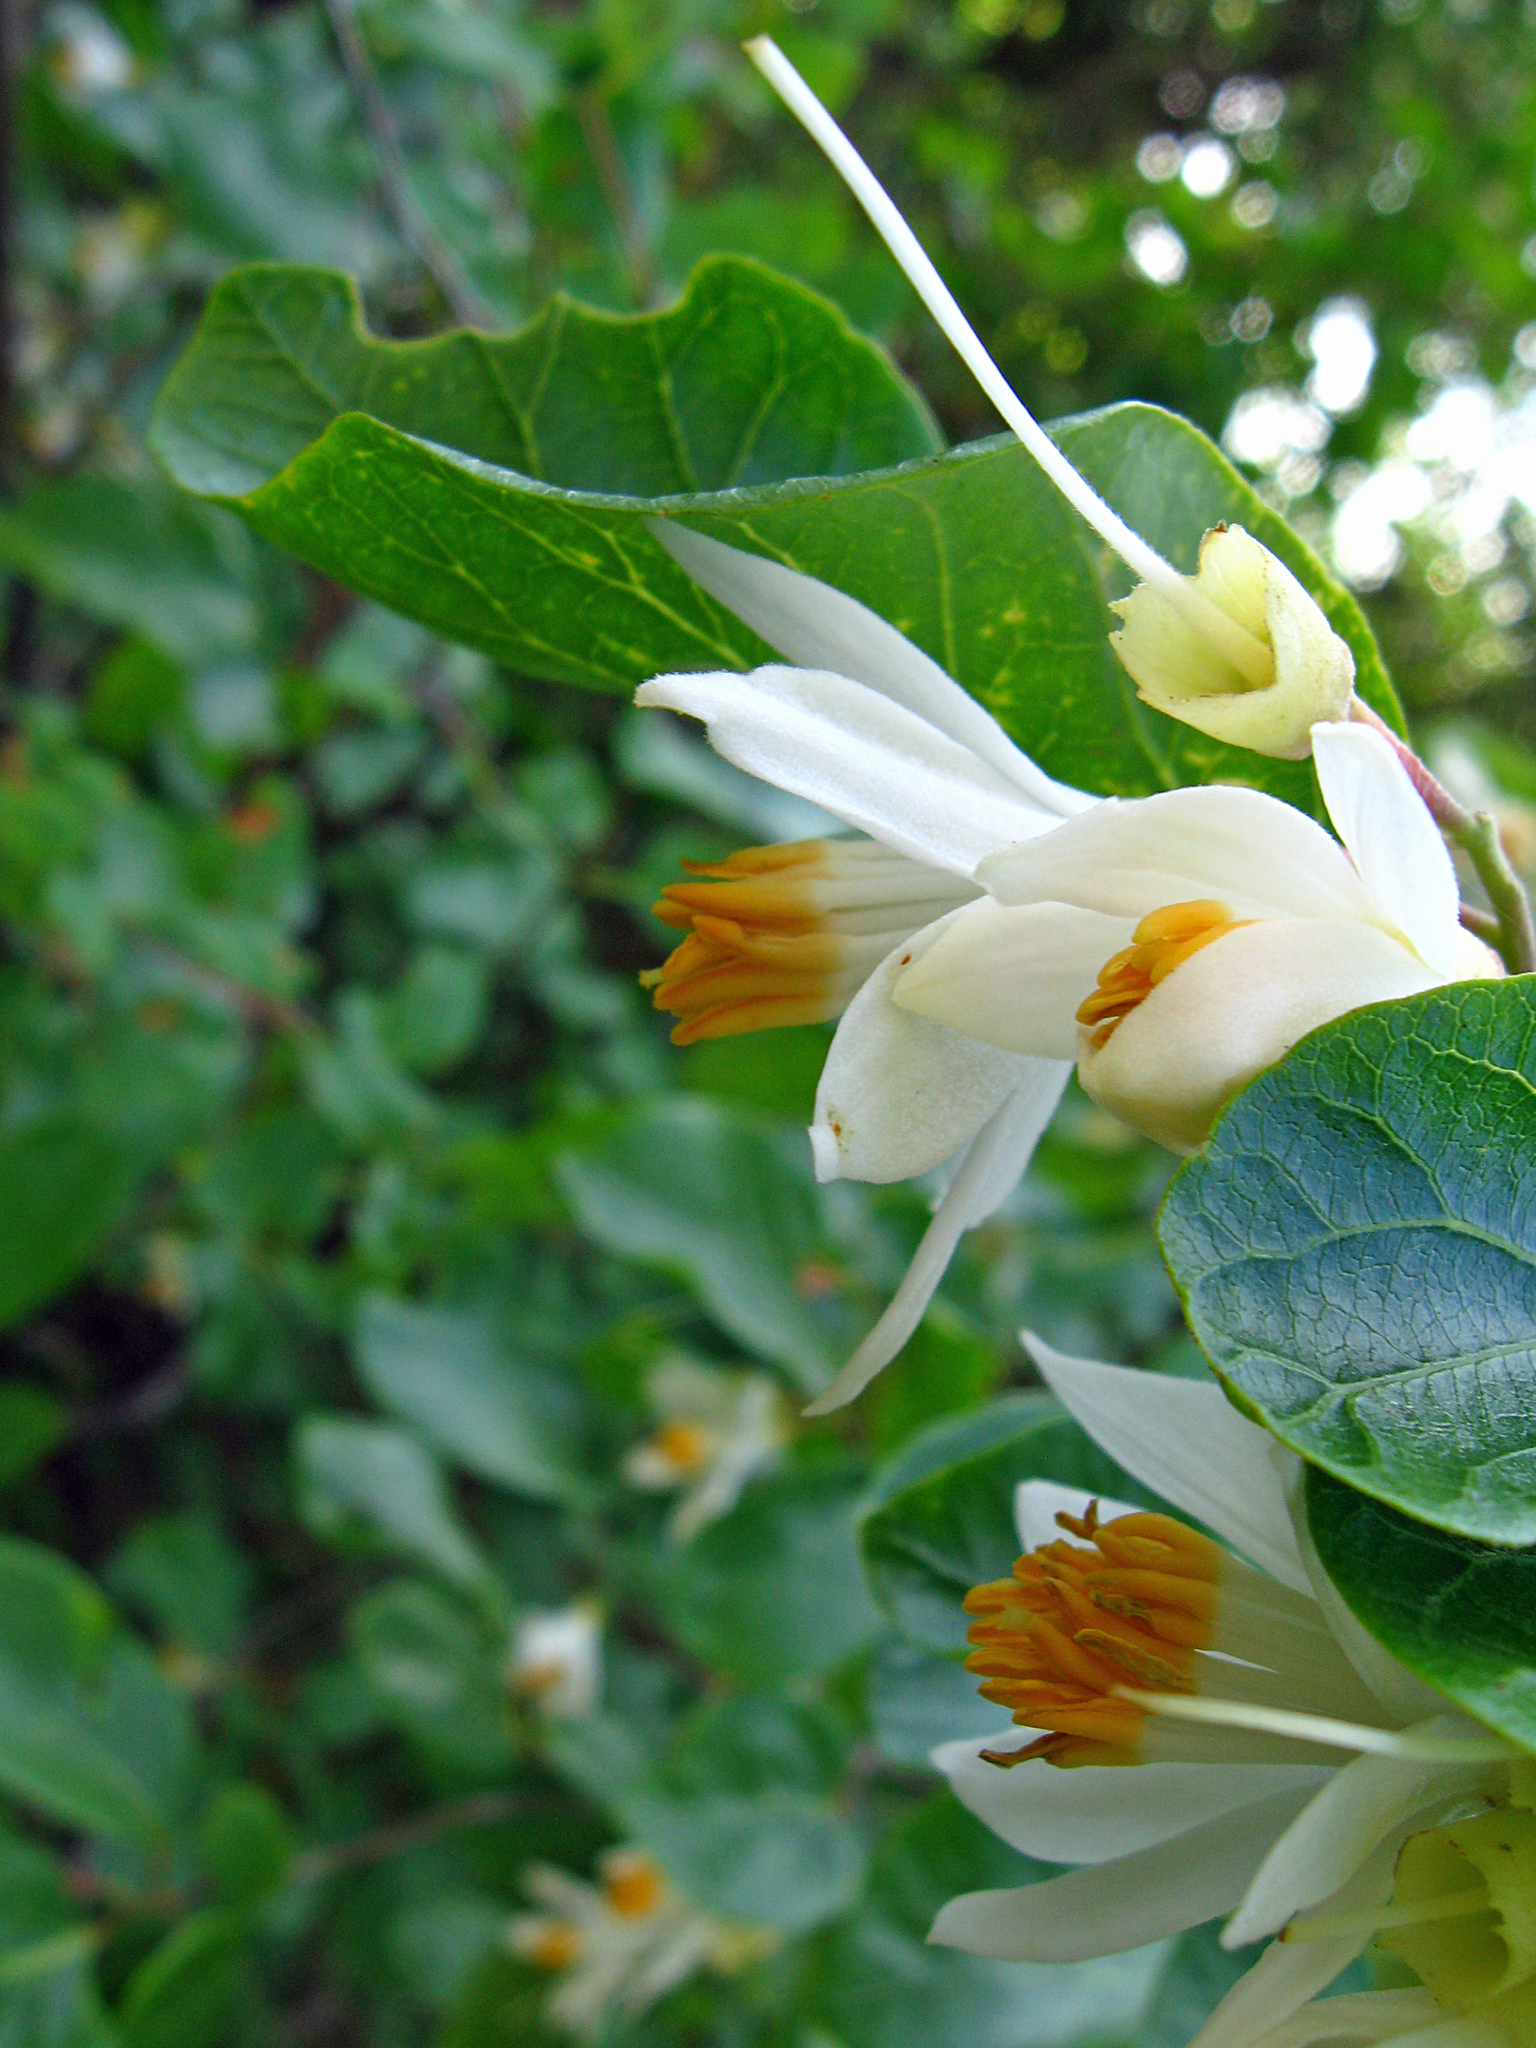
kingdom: Plantae
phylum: Tracheophyta
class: Magnoliopsida
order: Ericales
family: Styracaceae
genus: Styrax
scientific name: Styrax redivivus
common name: California styrax
